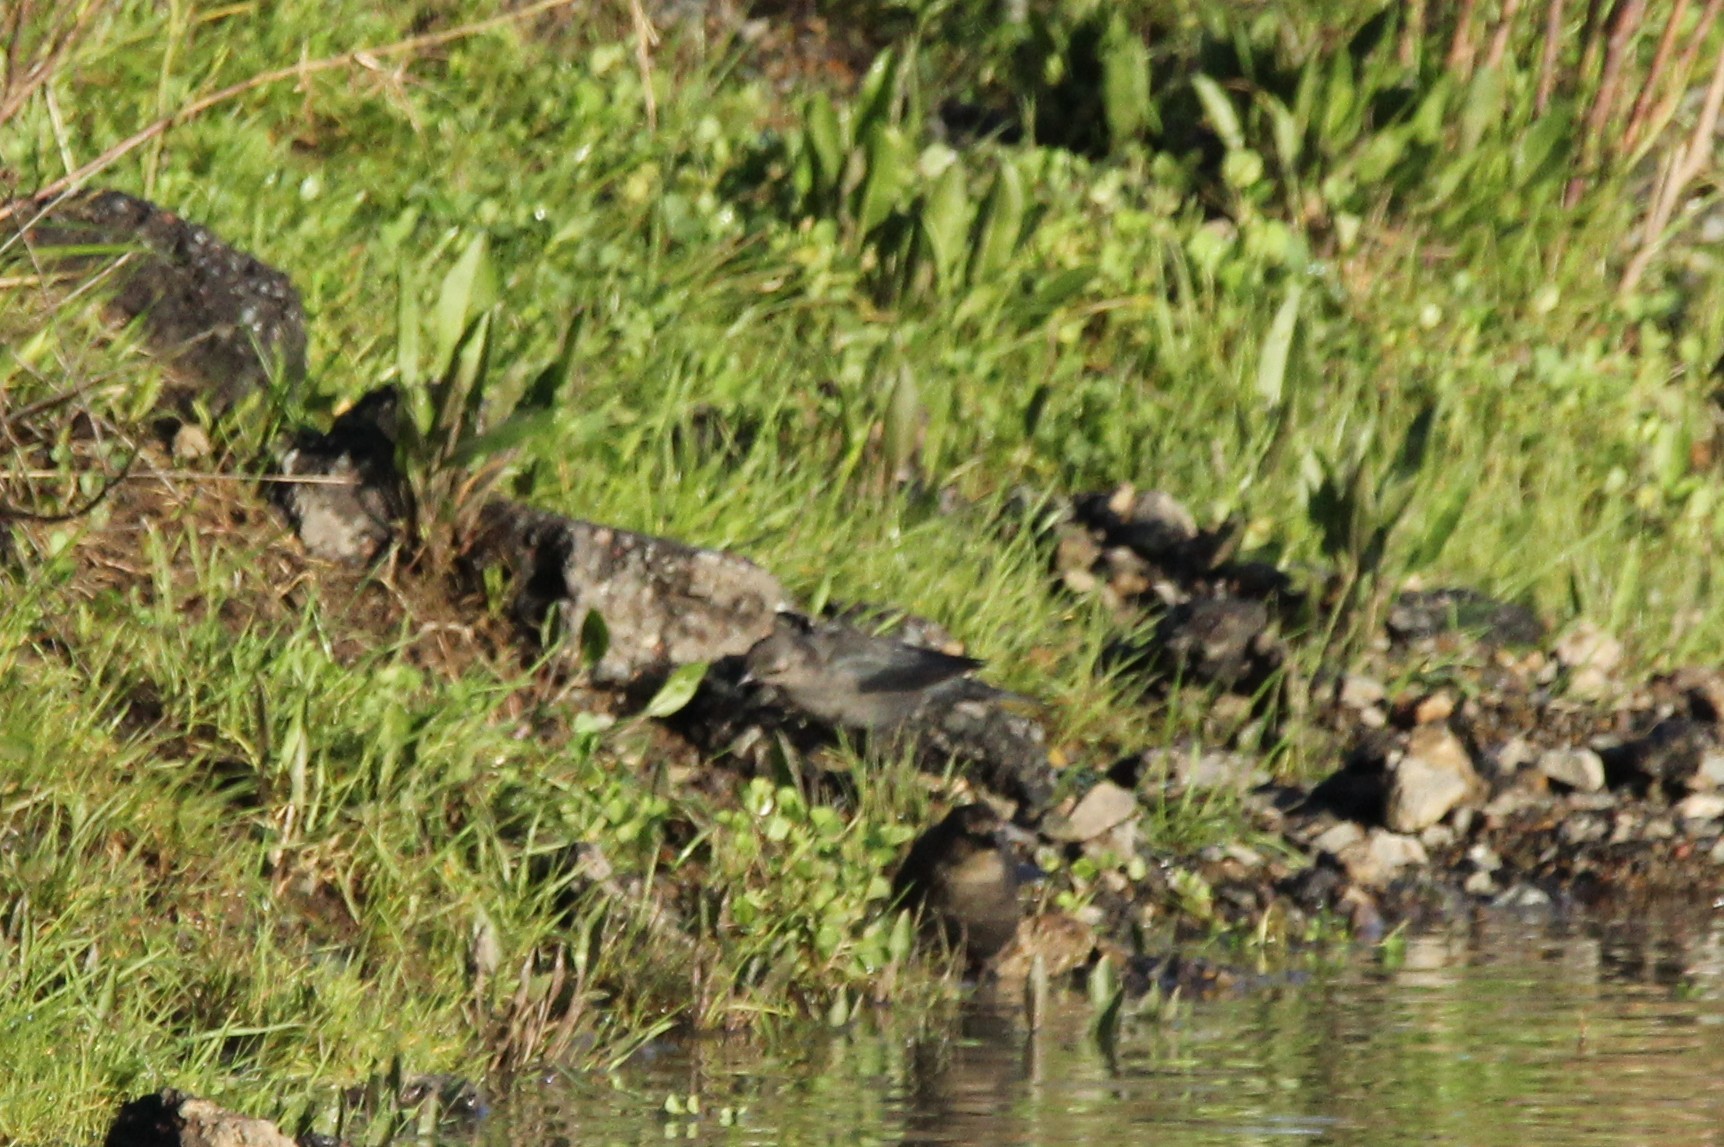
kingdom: Animalia
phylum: Chordata
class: Aves
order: Passeriformes
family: Icteridae
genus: Euphagus
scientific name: Euphagus cyanocephalus
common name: Brewer's blackbird
